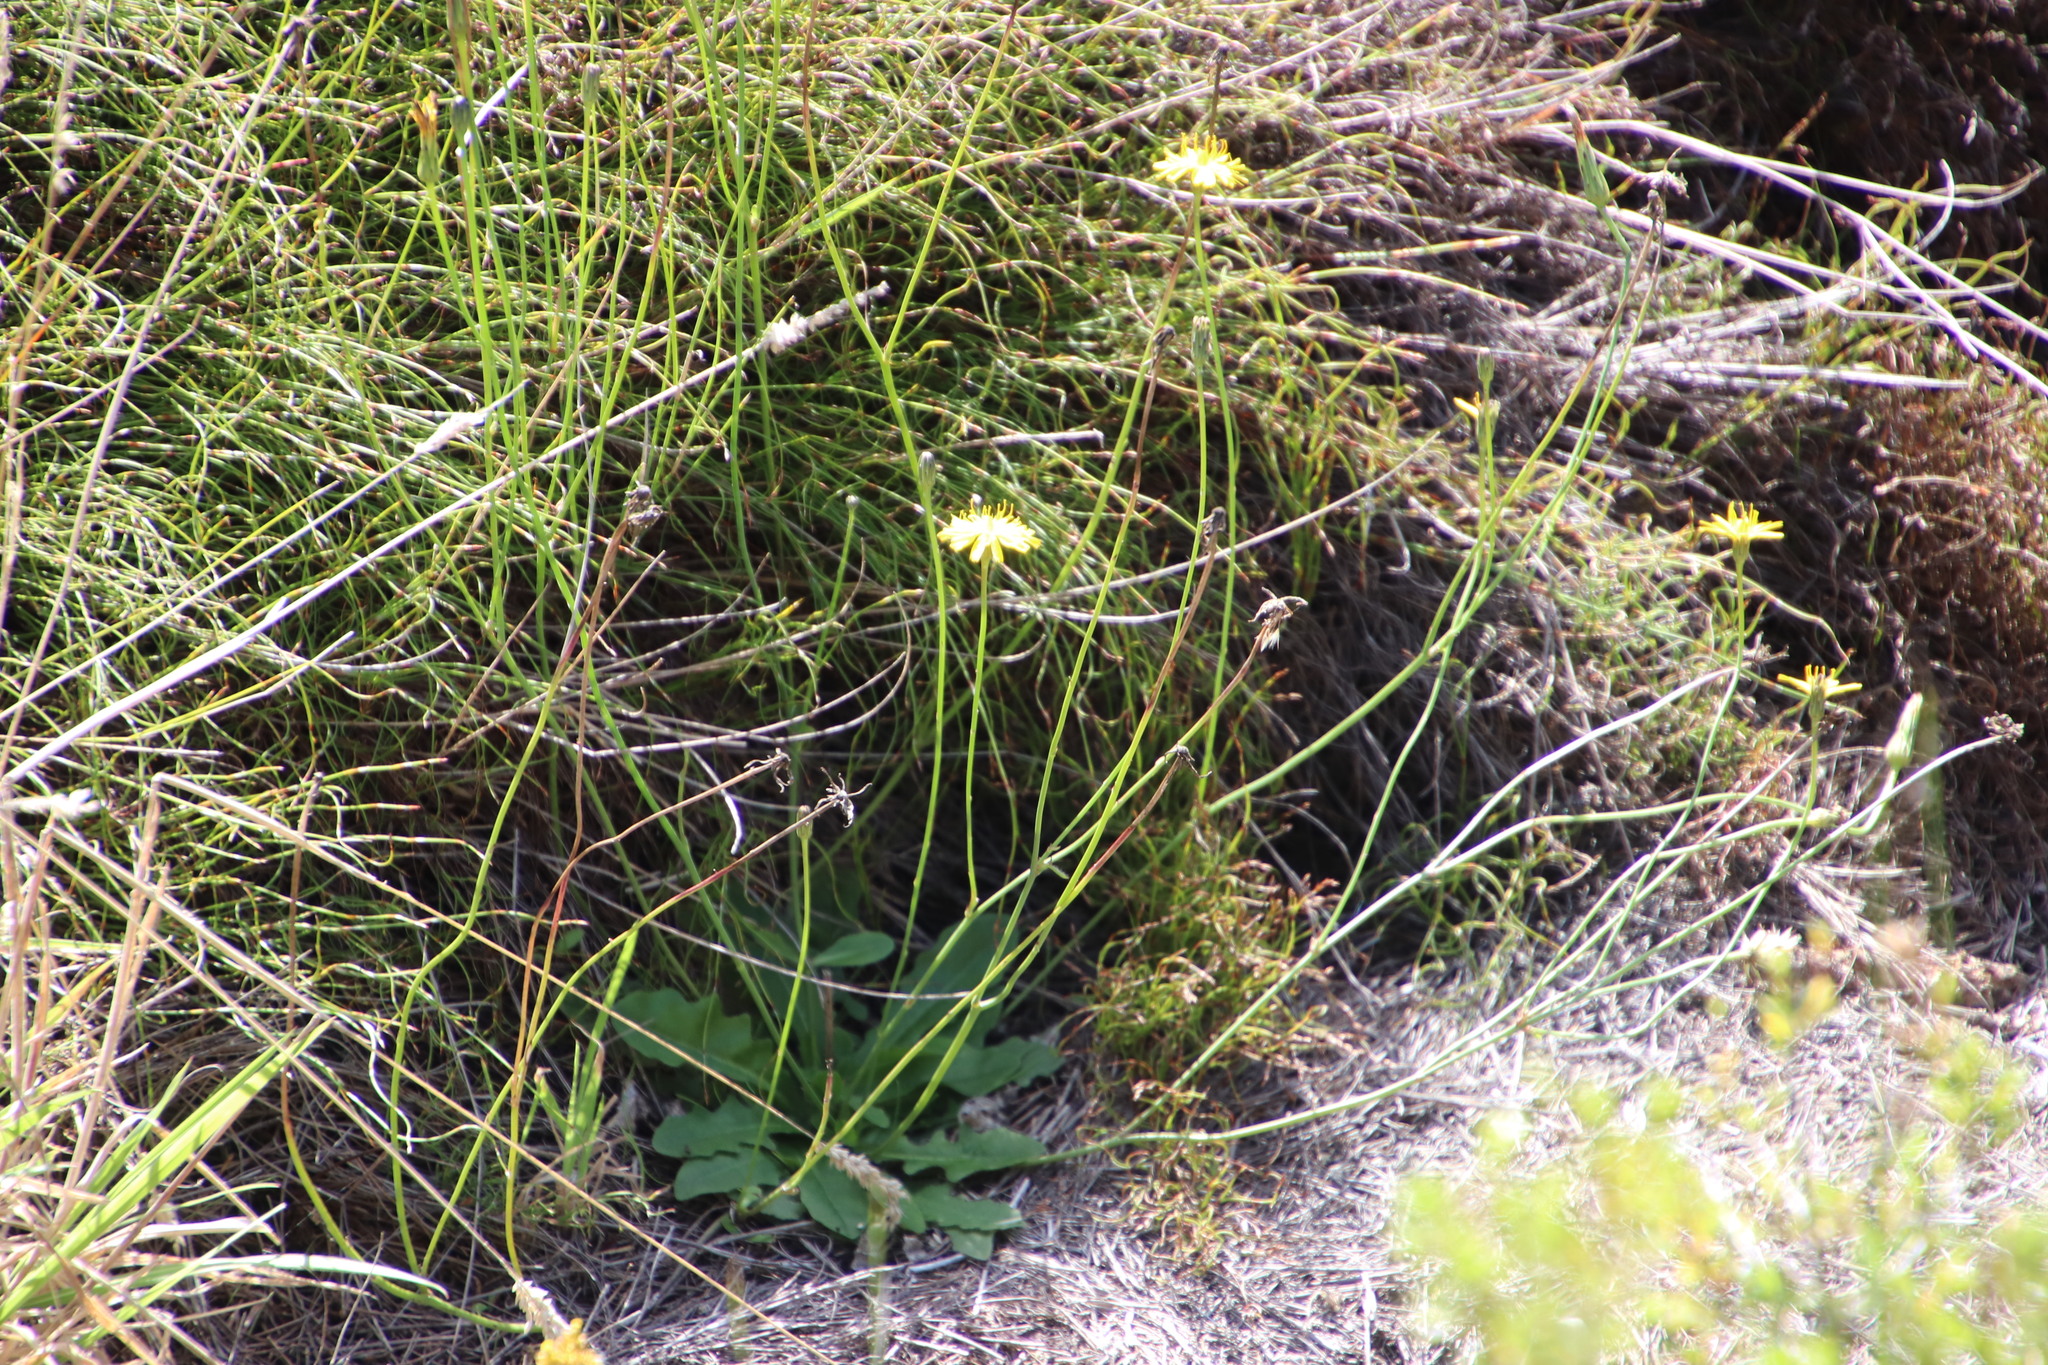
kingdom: Plantae
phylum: Tracheophyta
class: Magnoliopsida
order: Asterales
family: Asteraceae
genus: Hypochaeris
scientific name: Hypochaeris radicata
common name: Flatweed
